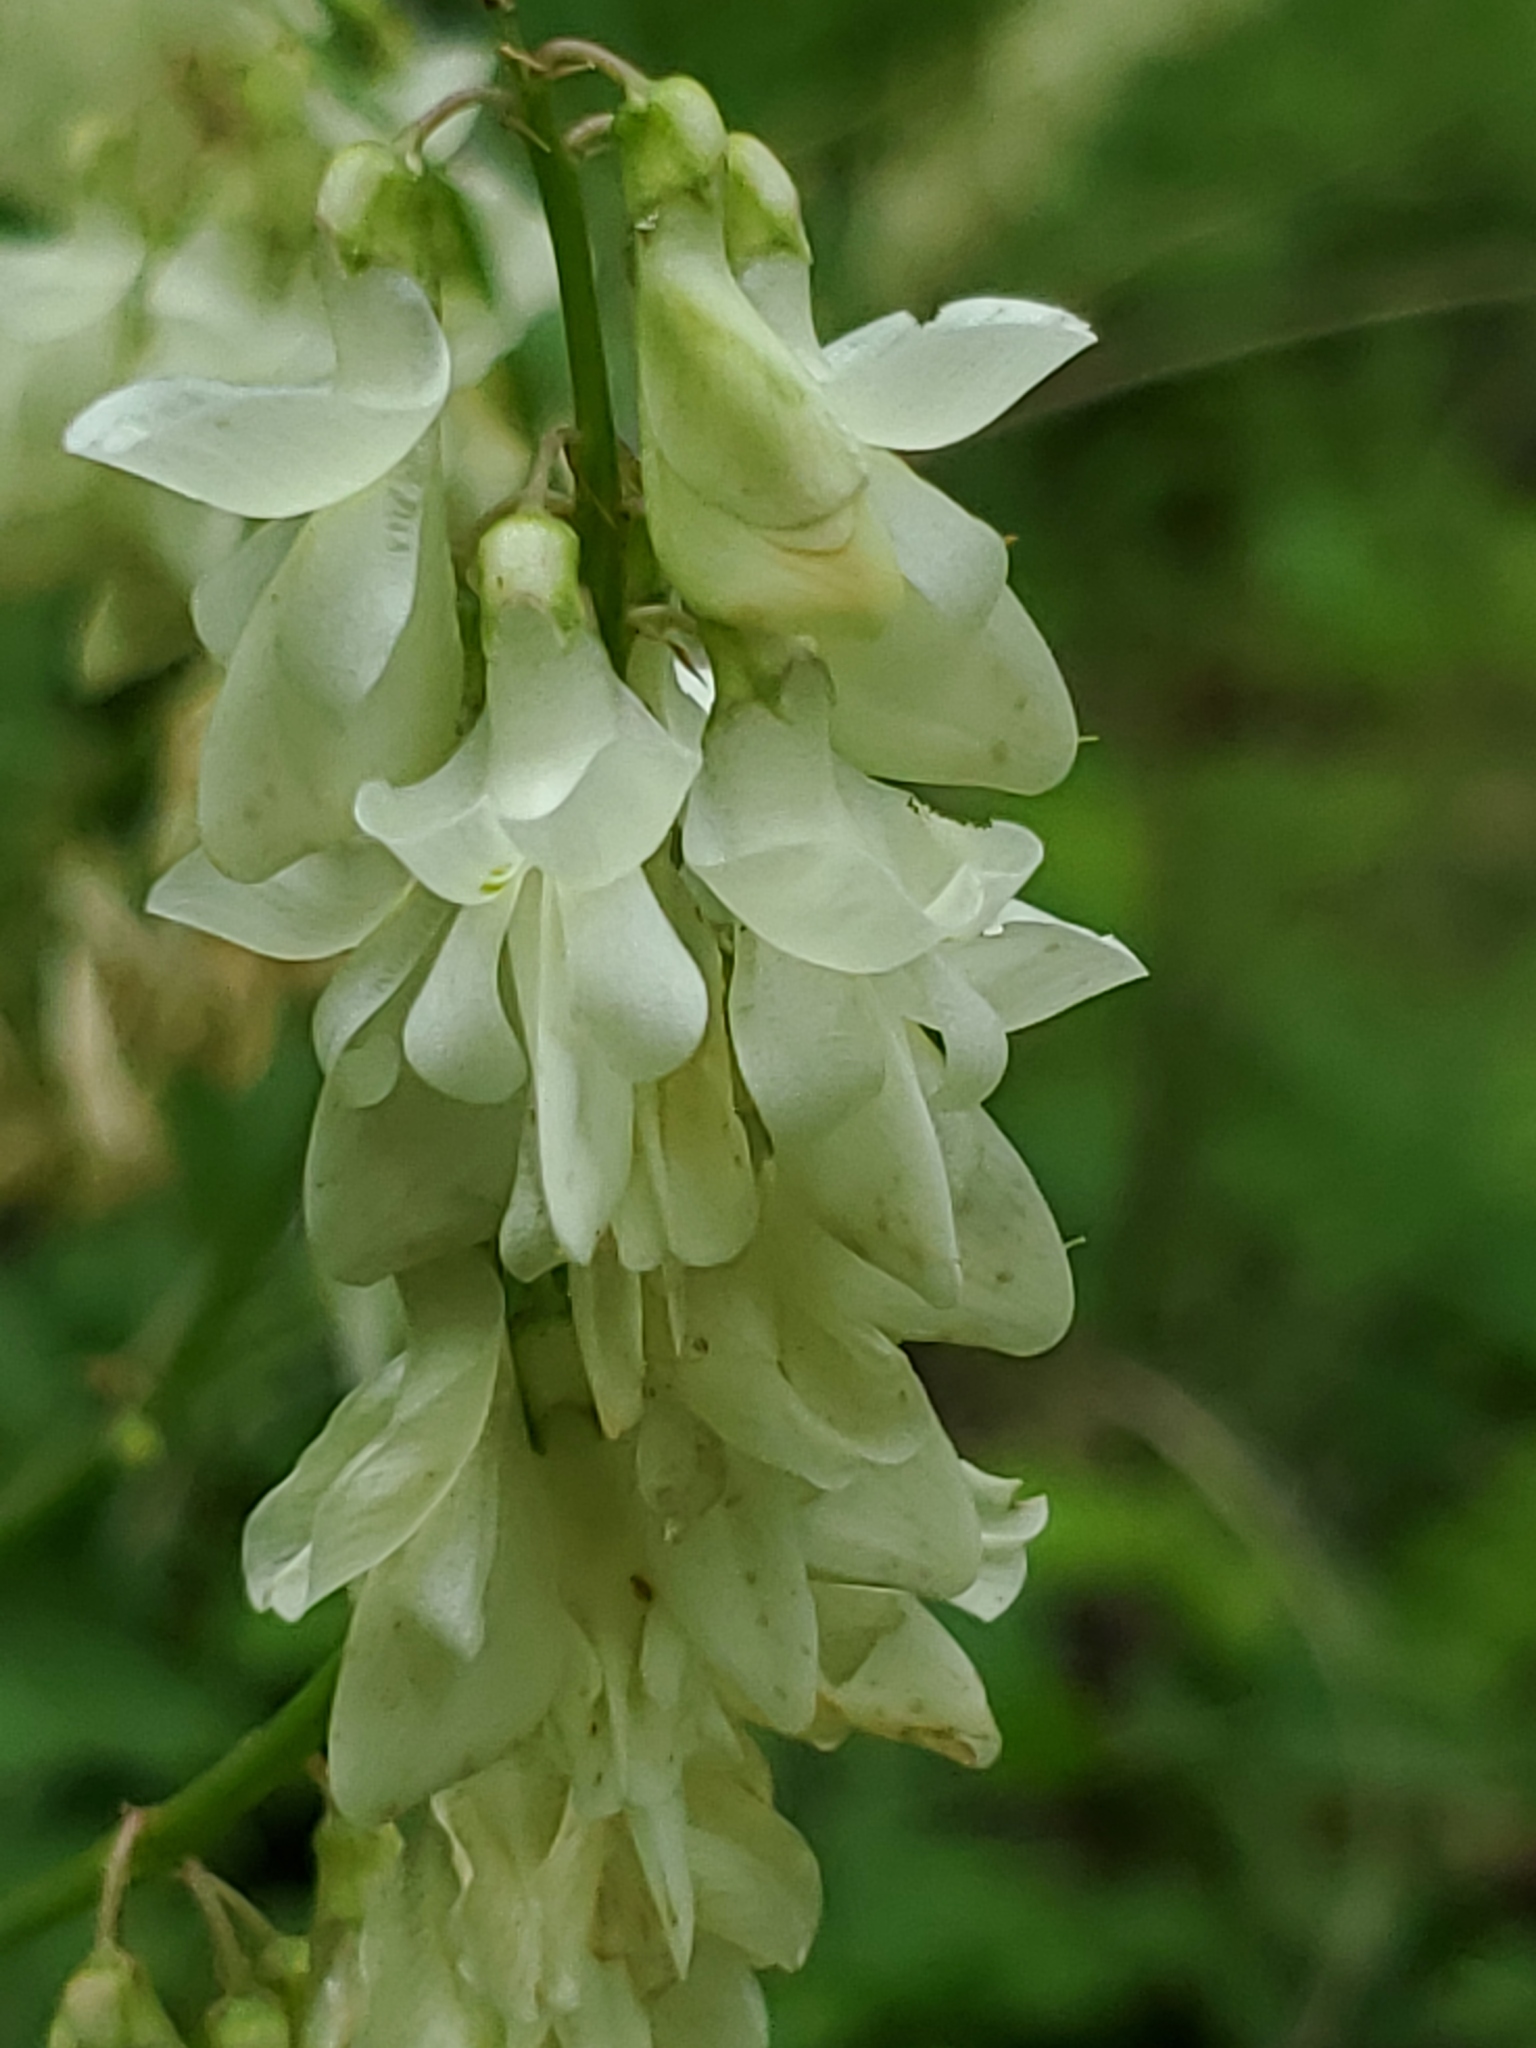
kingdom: Plantae
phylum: Tracheophyta
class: Magnoliopsida
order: Fabales
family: Fabaceae
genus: Hedysarum
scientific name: Hedysarum sulphurescens
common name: Sulphur hedysarum
